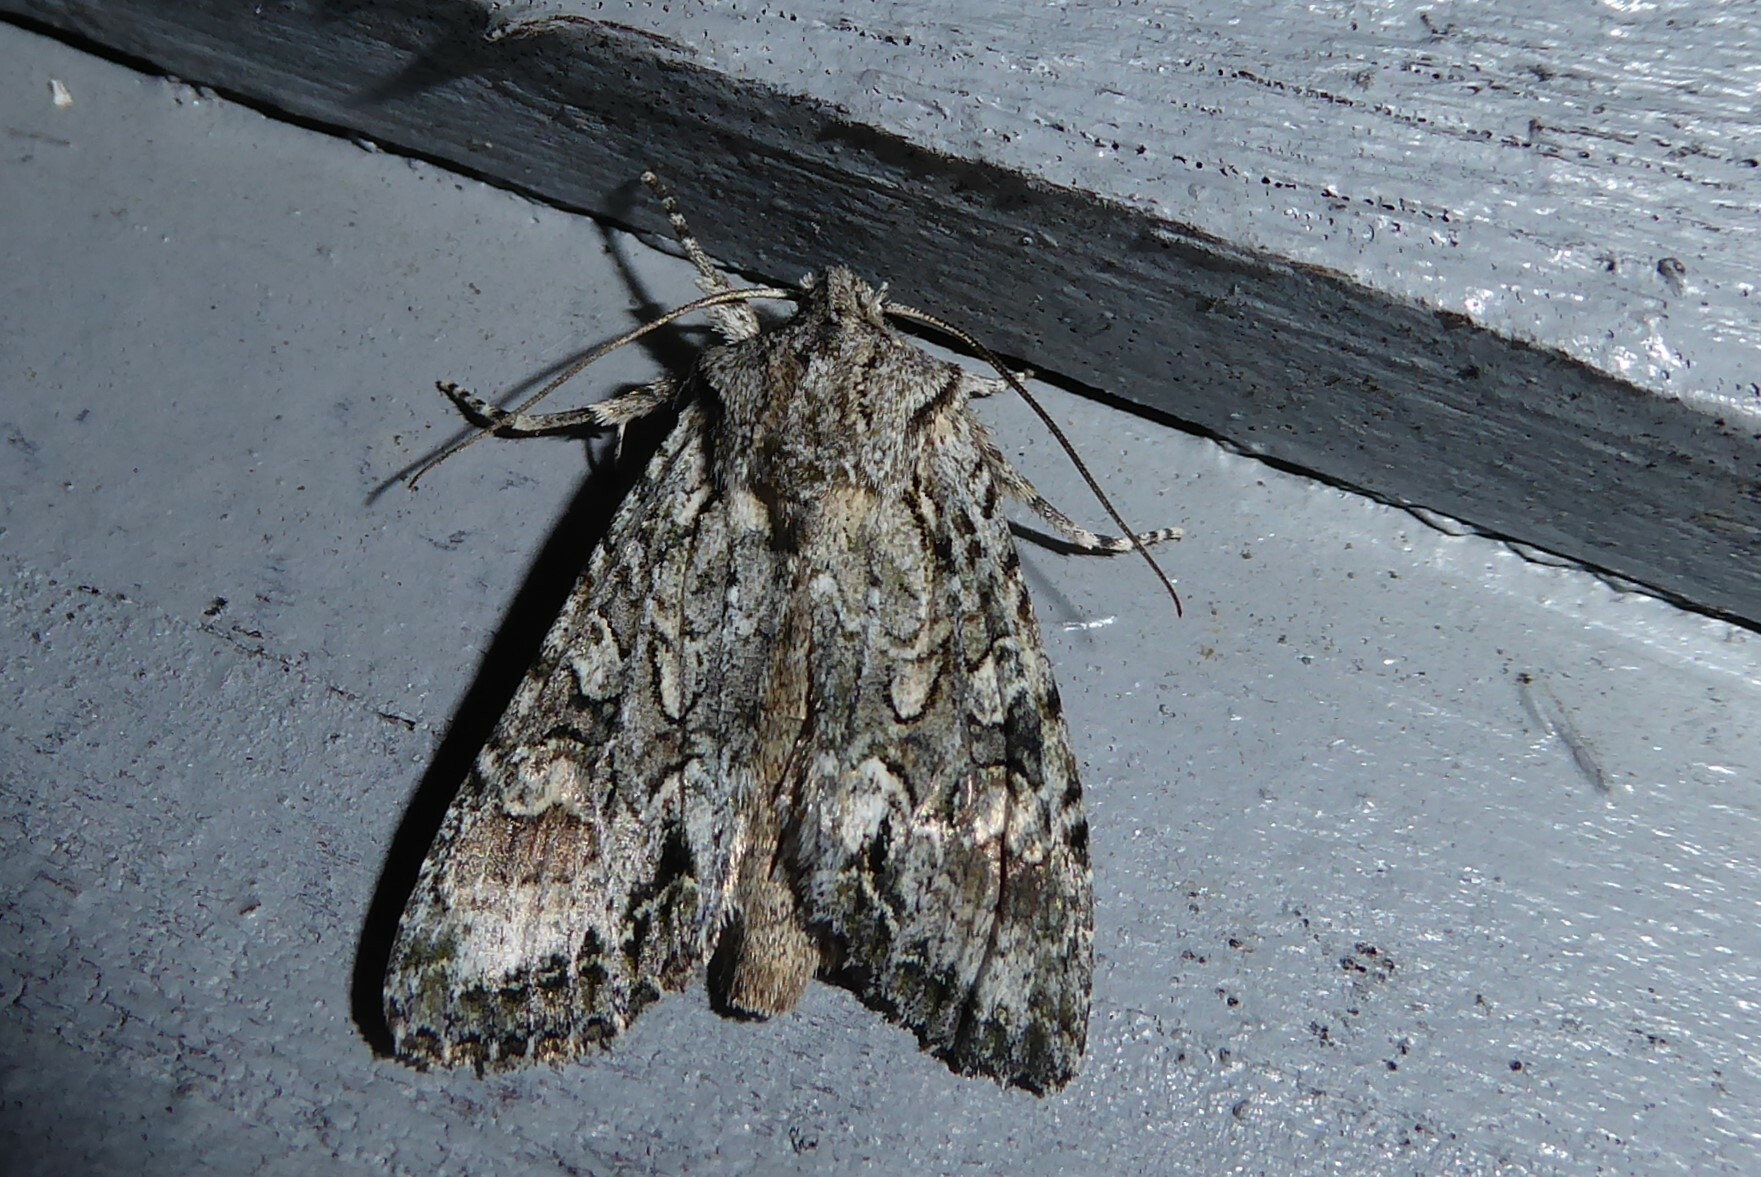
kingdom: Animalia
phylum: Arthropoda
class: Insecta
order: Lepidoptera
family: Noctuidae
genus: Ichneutica
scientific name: Ichneutica mutans
